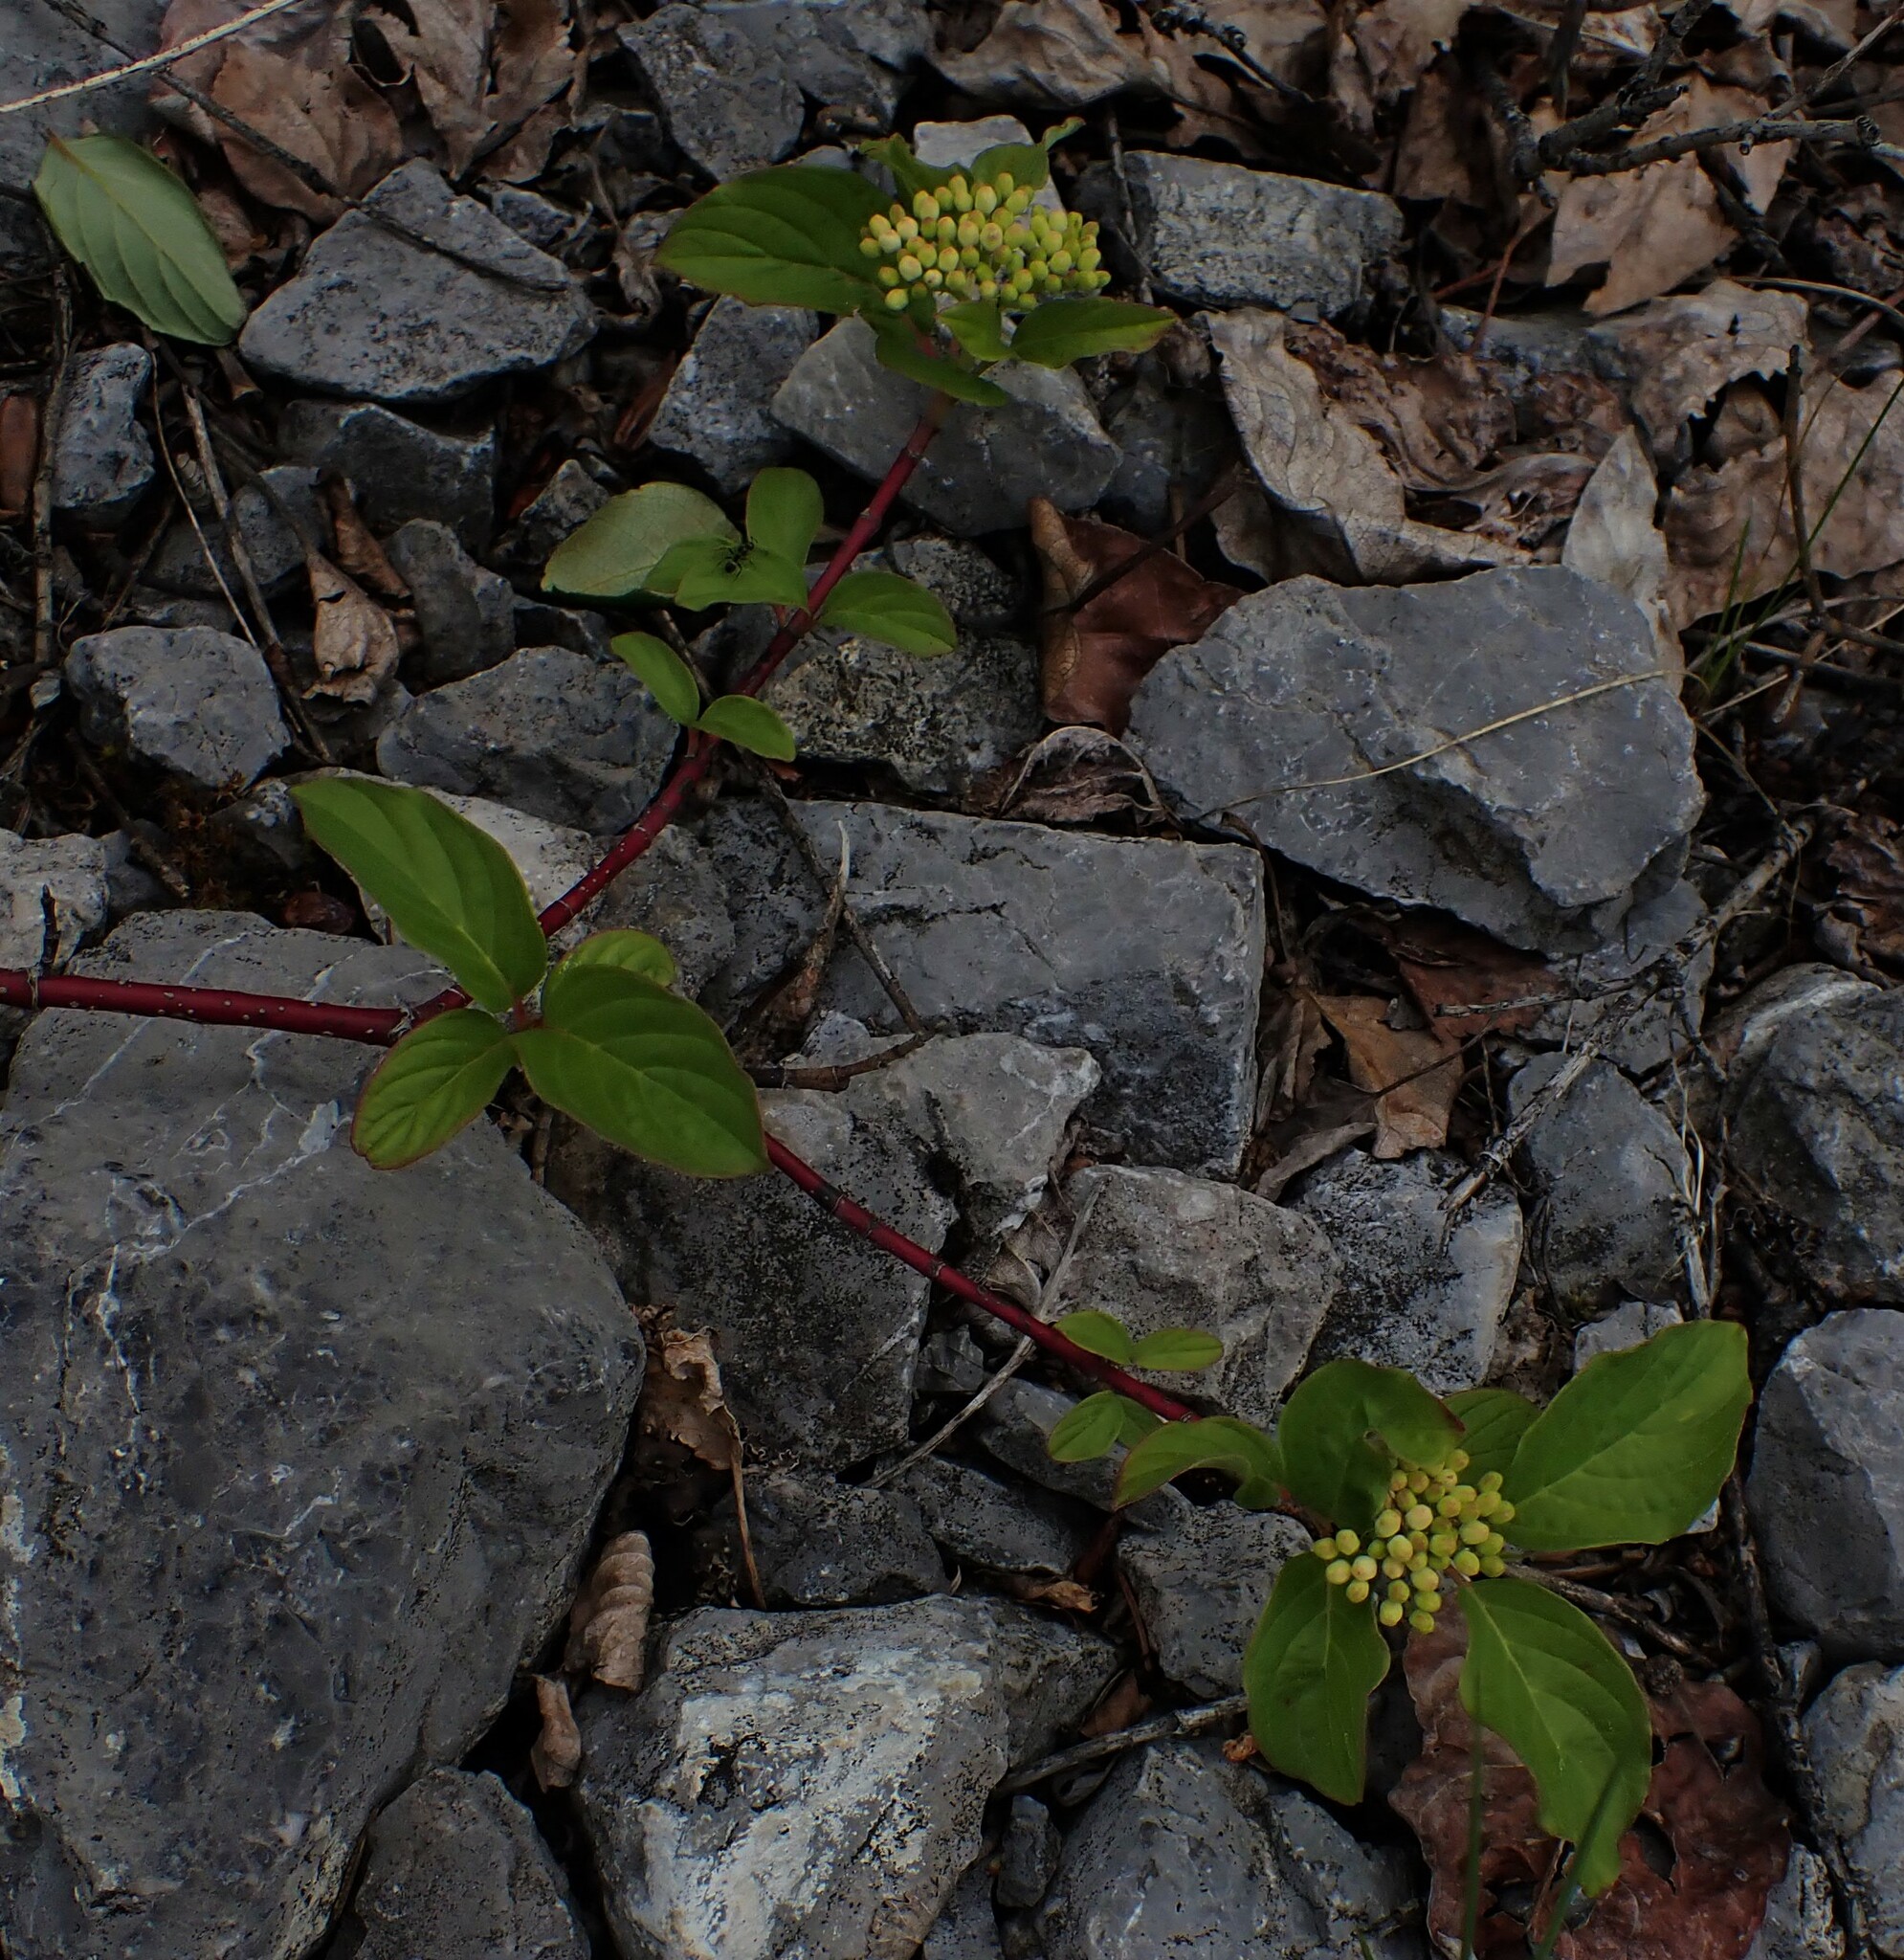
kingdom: Plantae
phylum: Tracheophyta
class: Magnoliopsida
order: Cornales
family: Cornaceae
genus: Cornus
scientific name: Cornus sericea
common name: Red-osier dogwood
